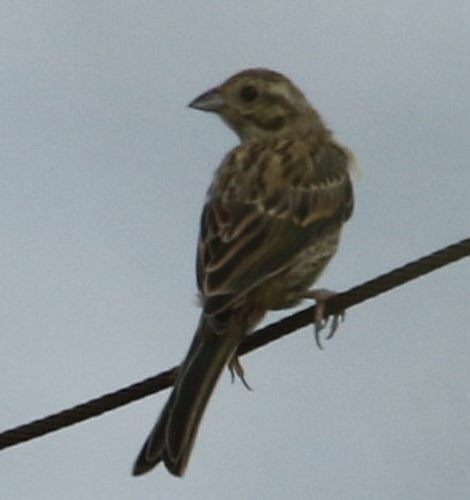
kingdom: Animalia
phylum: Chordata
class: Aves
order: Passeriformes
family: Emberizidae
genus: Emberiza
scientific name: Emberiza cirlus
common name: Cirl bunting
